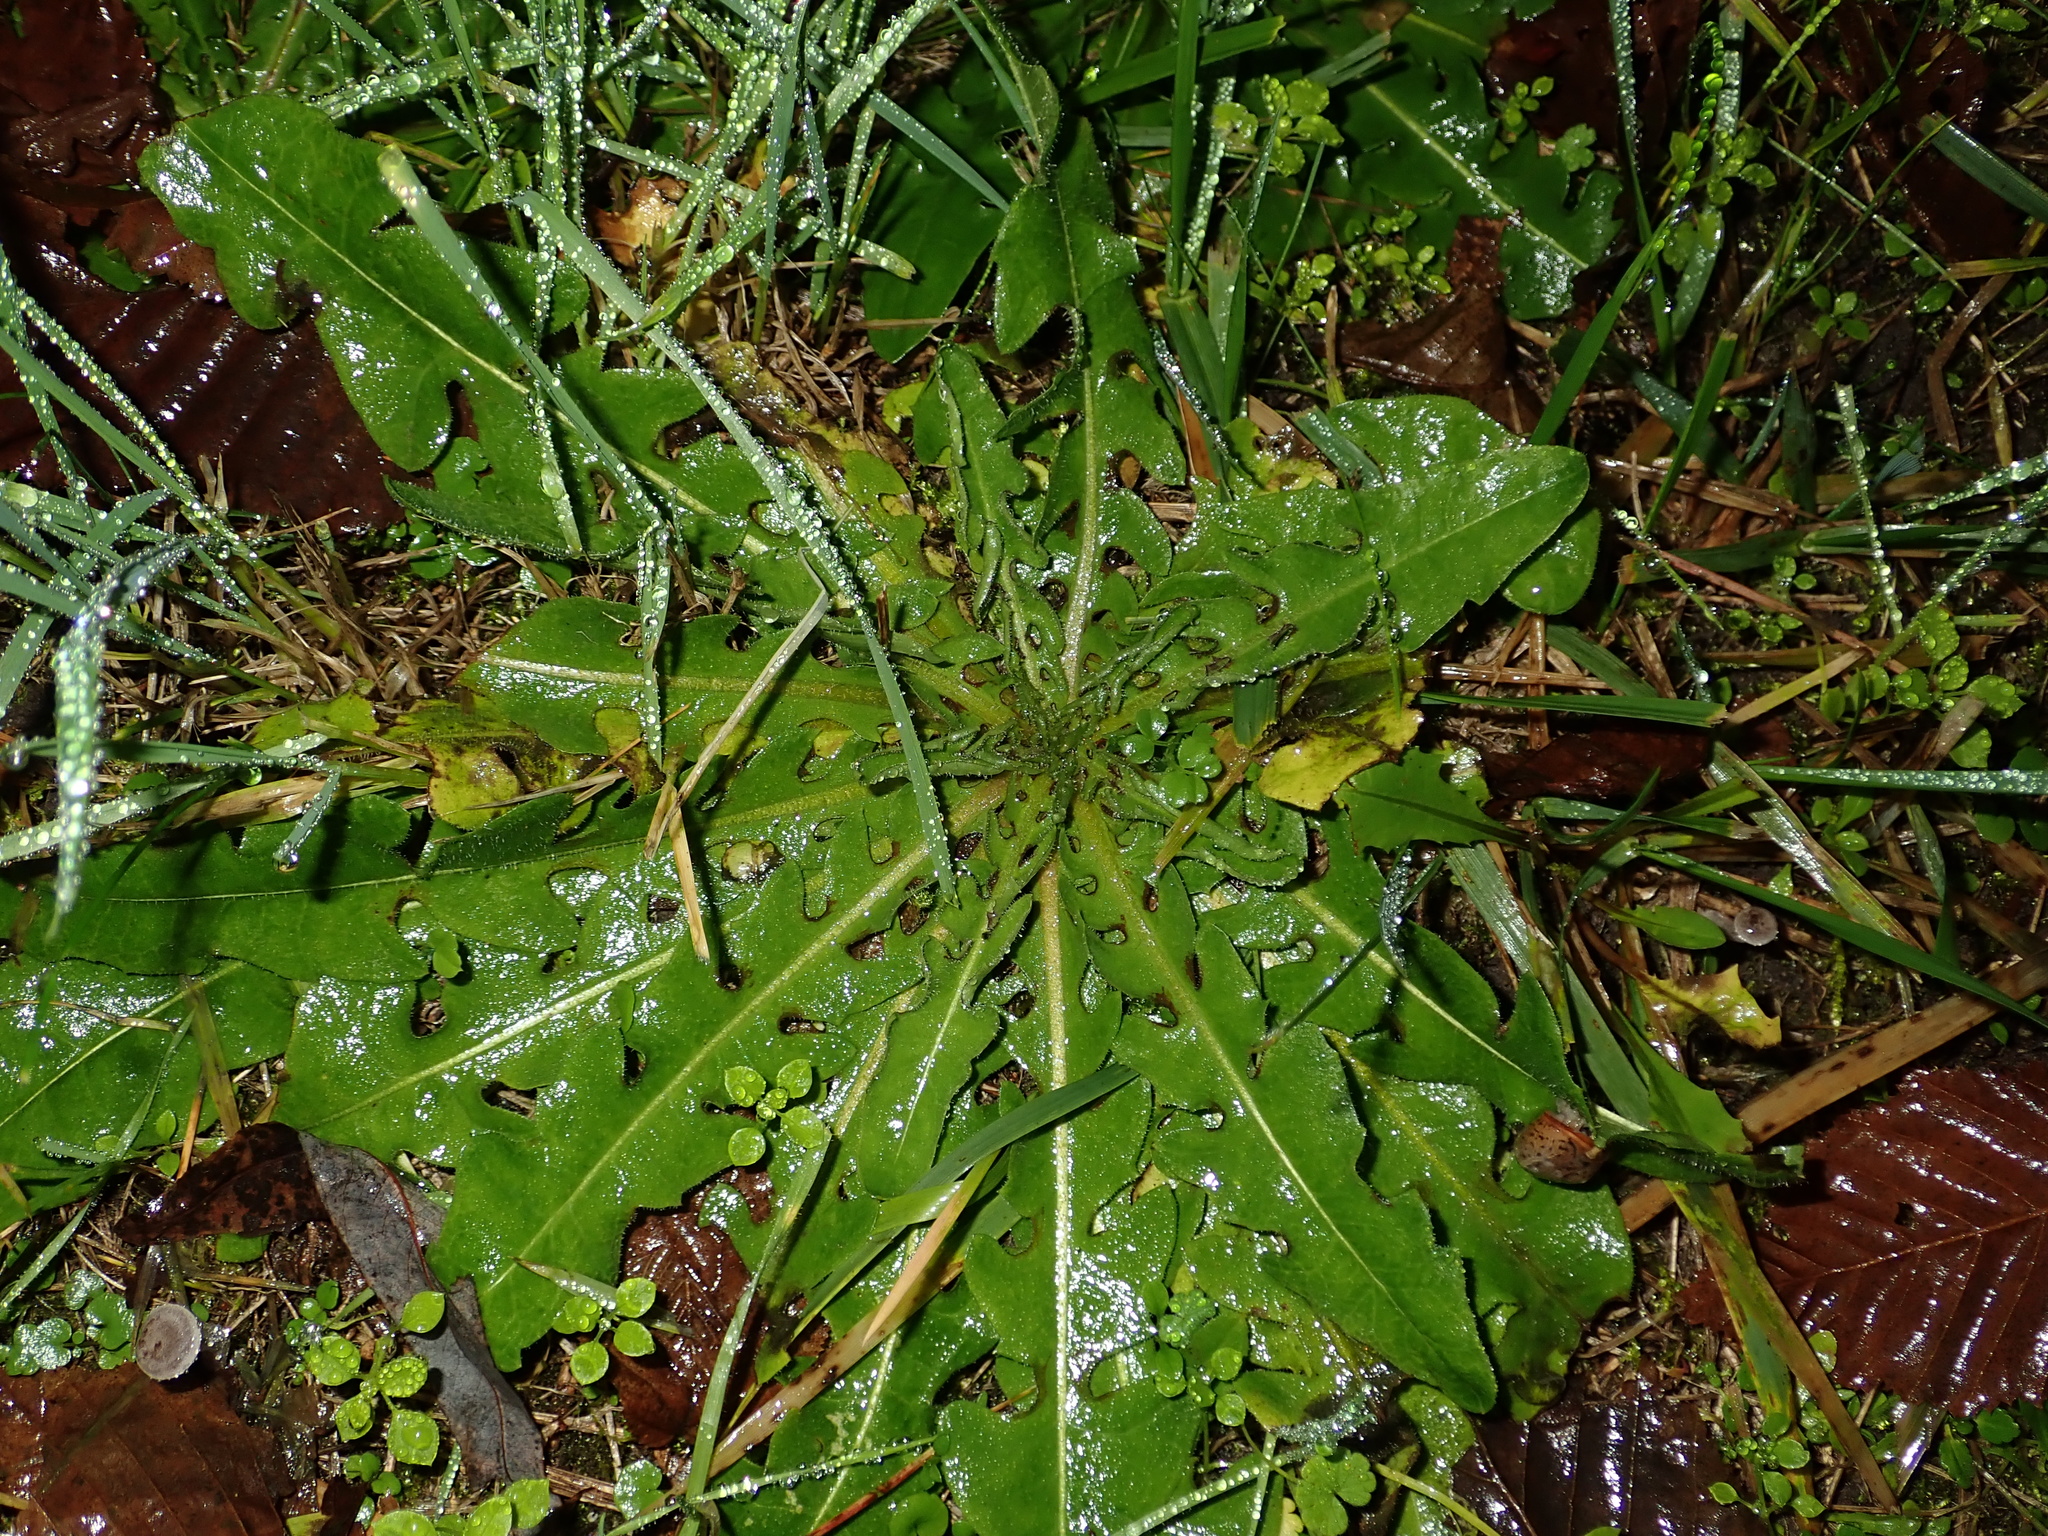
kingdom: Plantae
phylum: Tracheophyta
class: Magnoliopsida
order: Asterales
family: Asteraceae
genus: Taraxacum
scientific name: Taraxacum officinale
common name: Common dandelion
